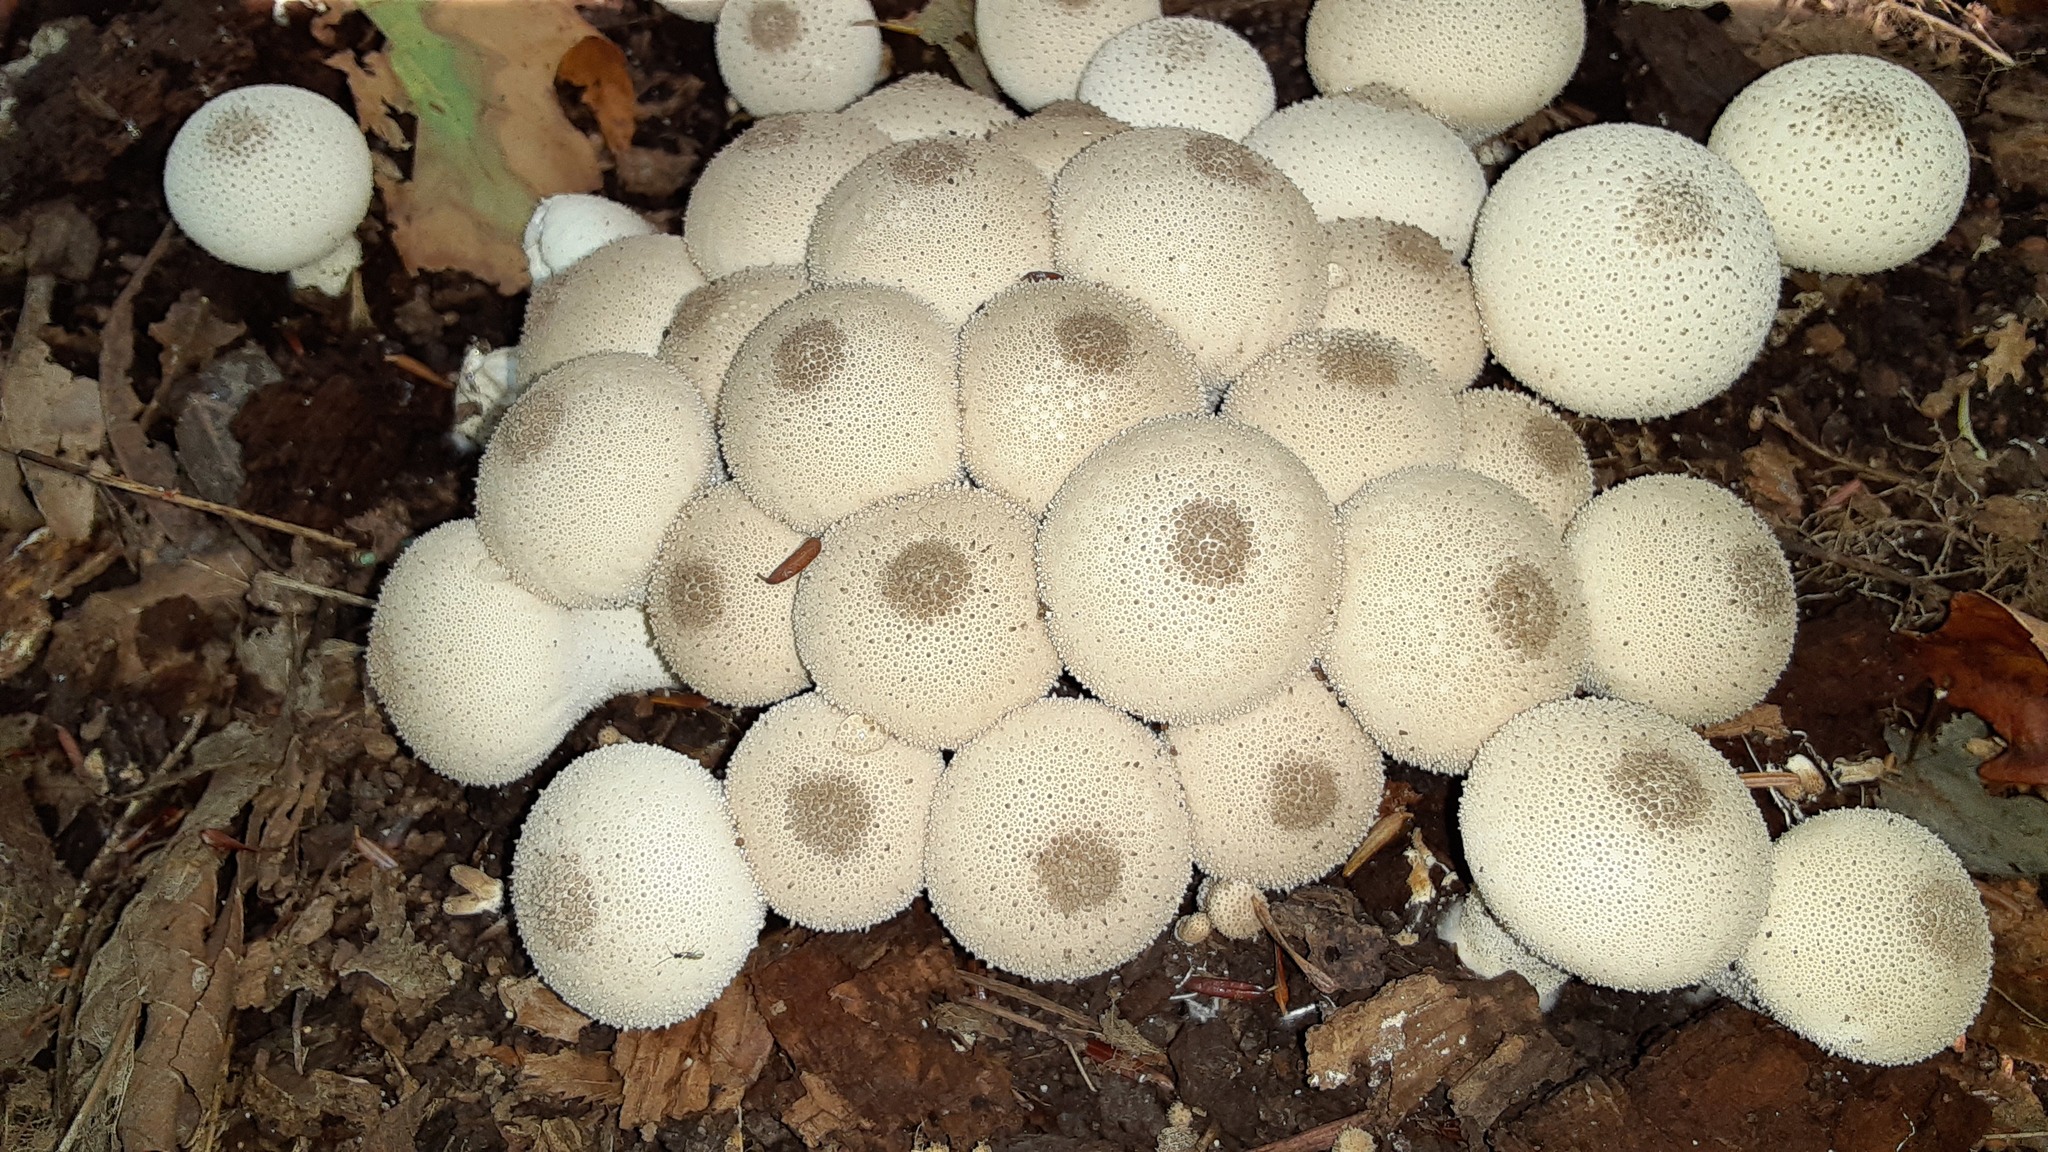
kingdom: Fungi
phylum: Basidiomycota
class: Agaricomycetes
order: Agaricales
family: Lycoperdaceae
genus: Lycoperdon
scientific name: Lycoperdon perlatum
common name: Common puffball
